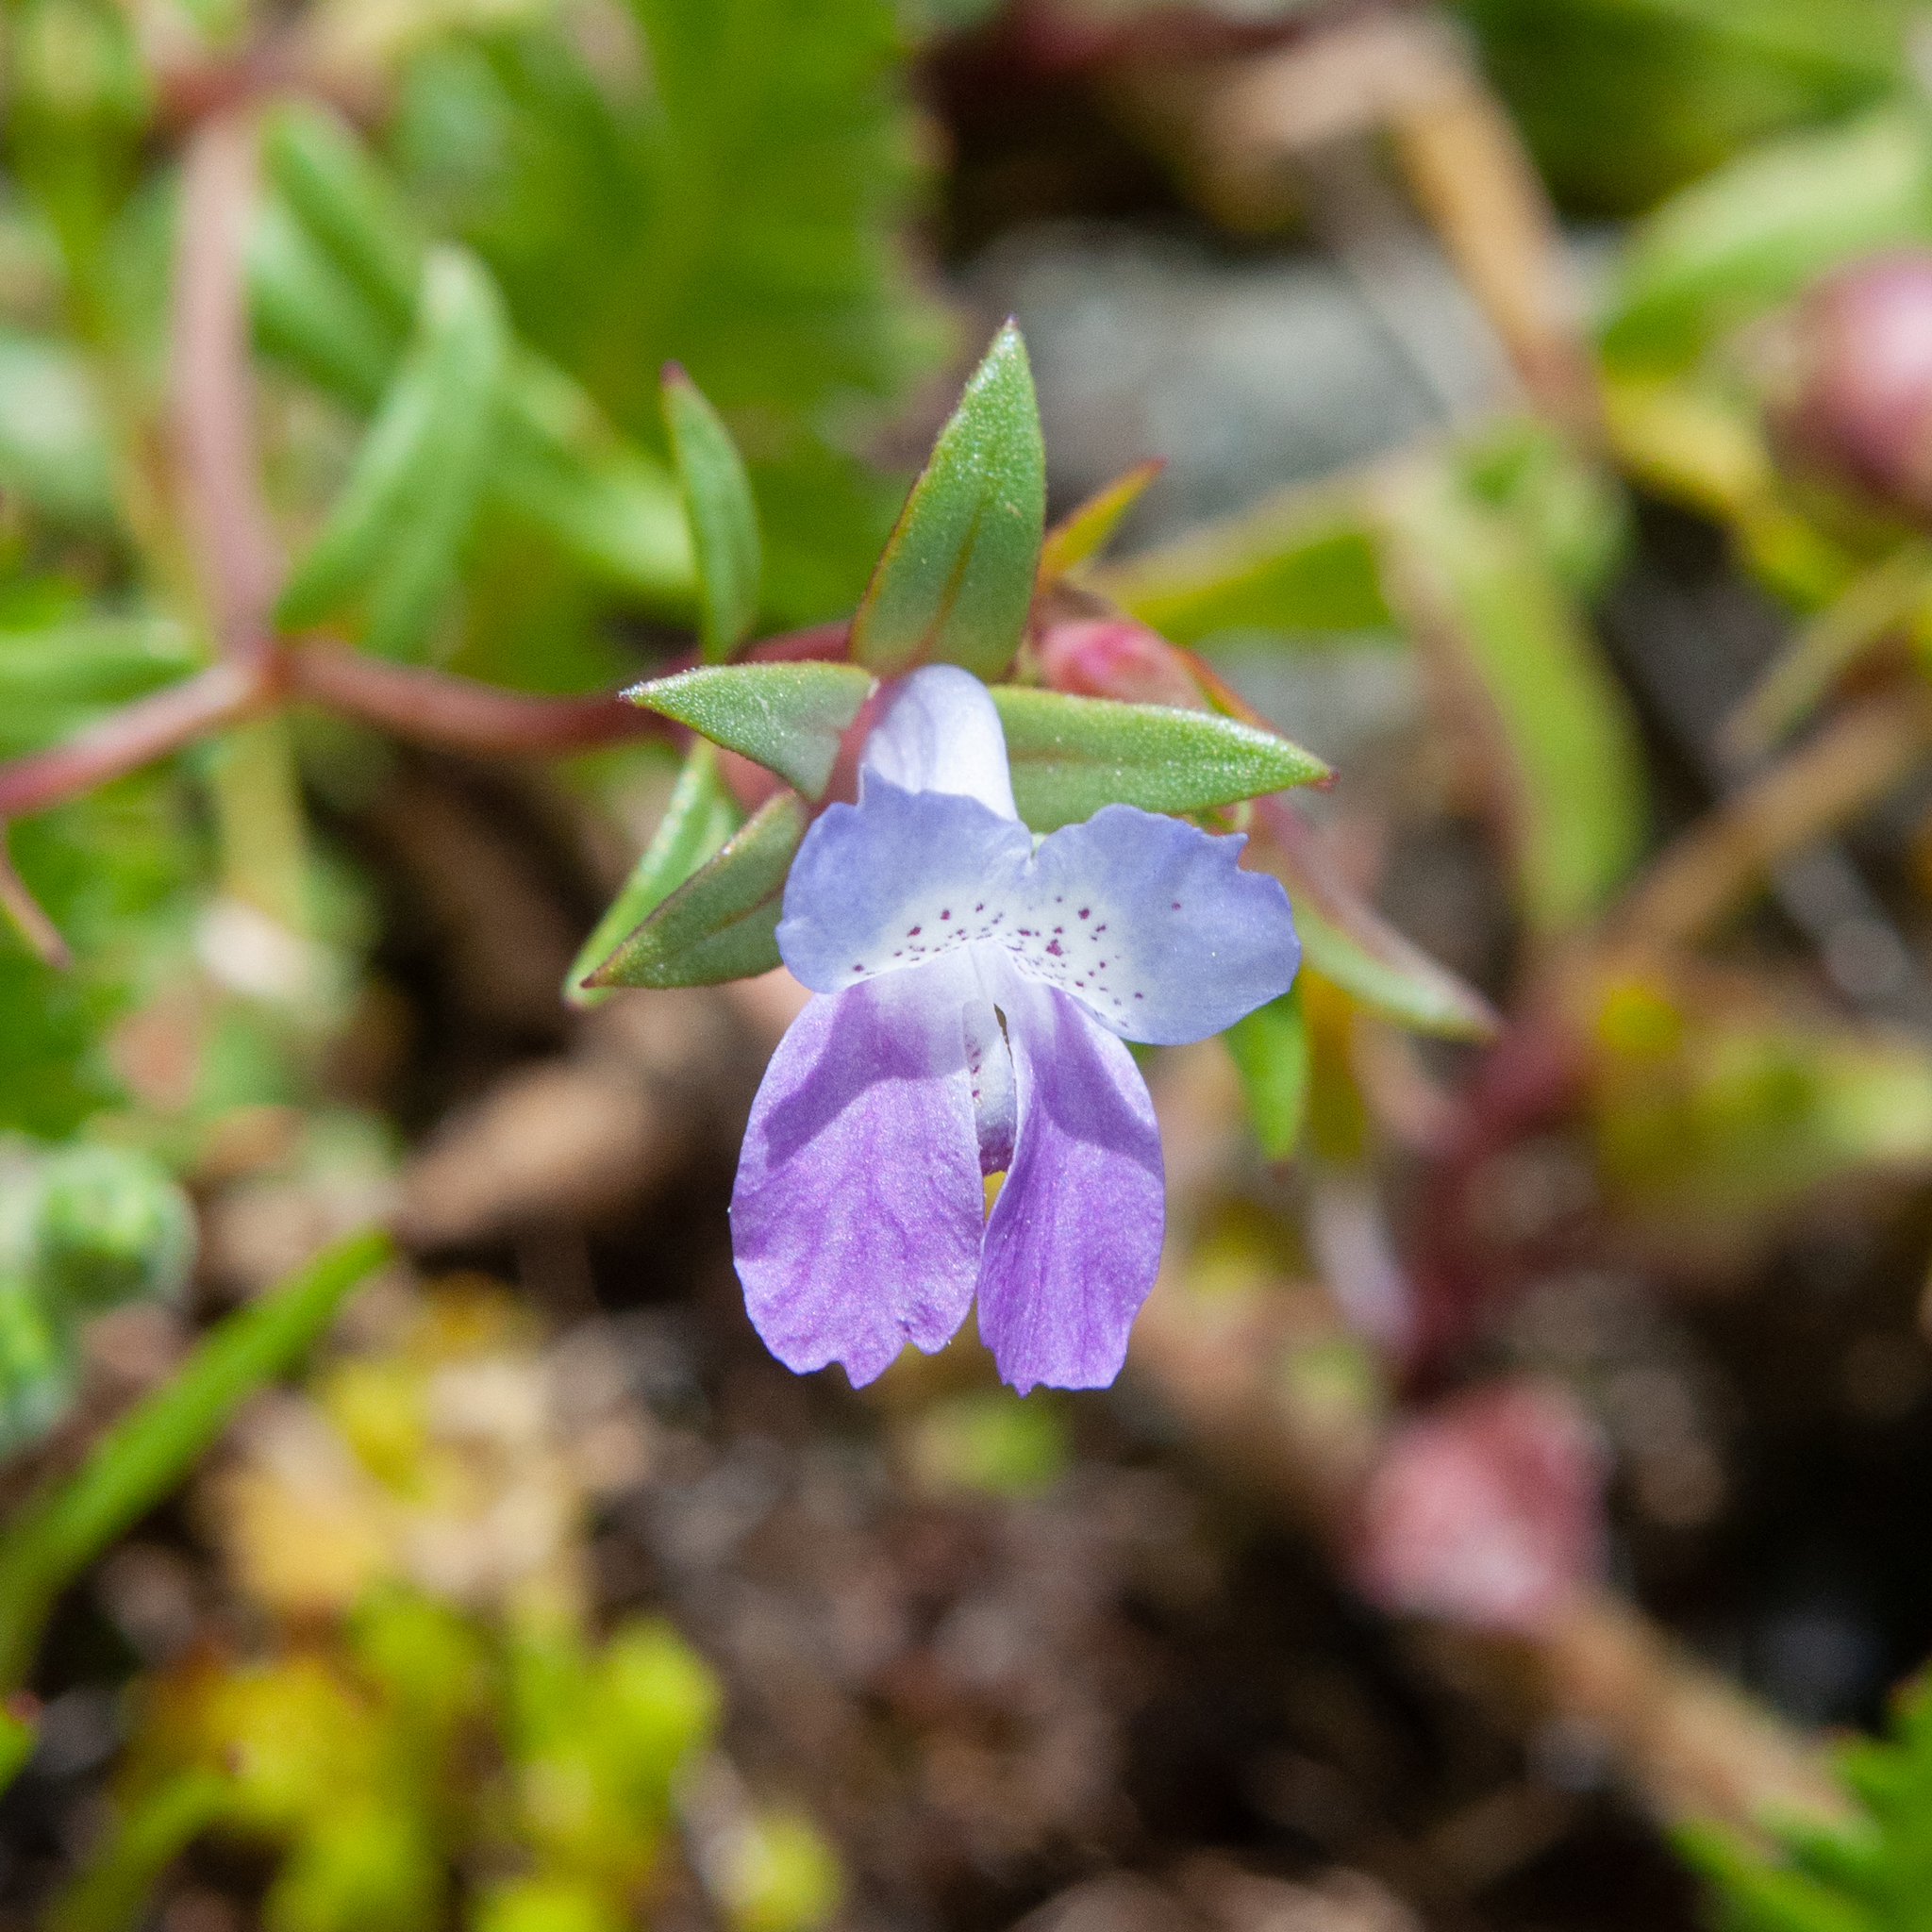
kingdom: Plantae
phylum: Tracheophyta
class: Magnoliopsida
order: Lamiales
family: Plantaginaceae
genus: Collinsia
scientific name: Collinsia sparsiflora
